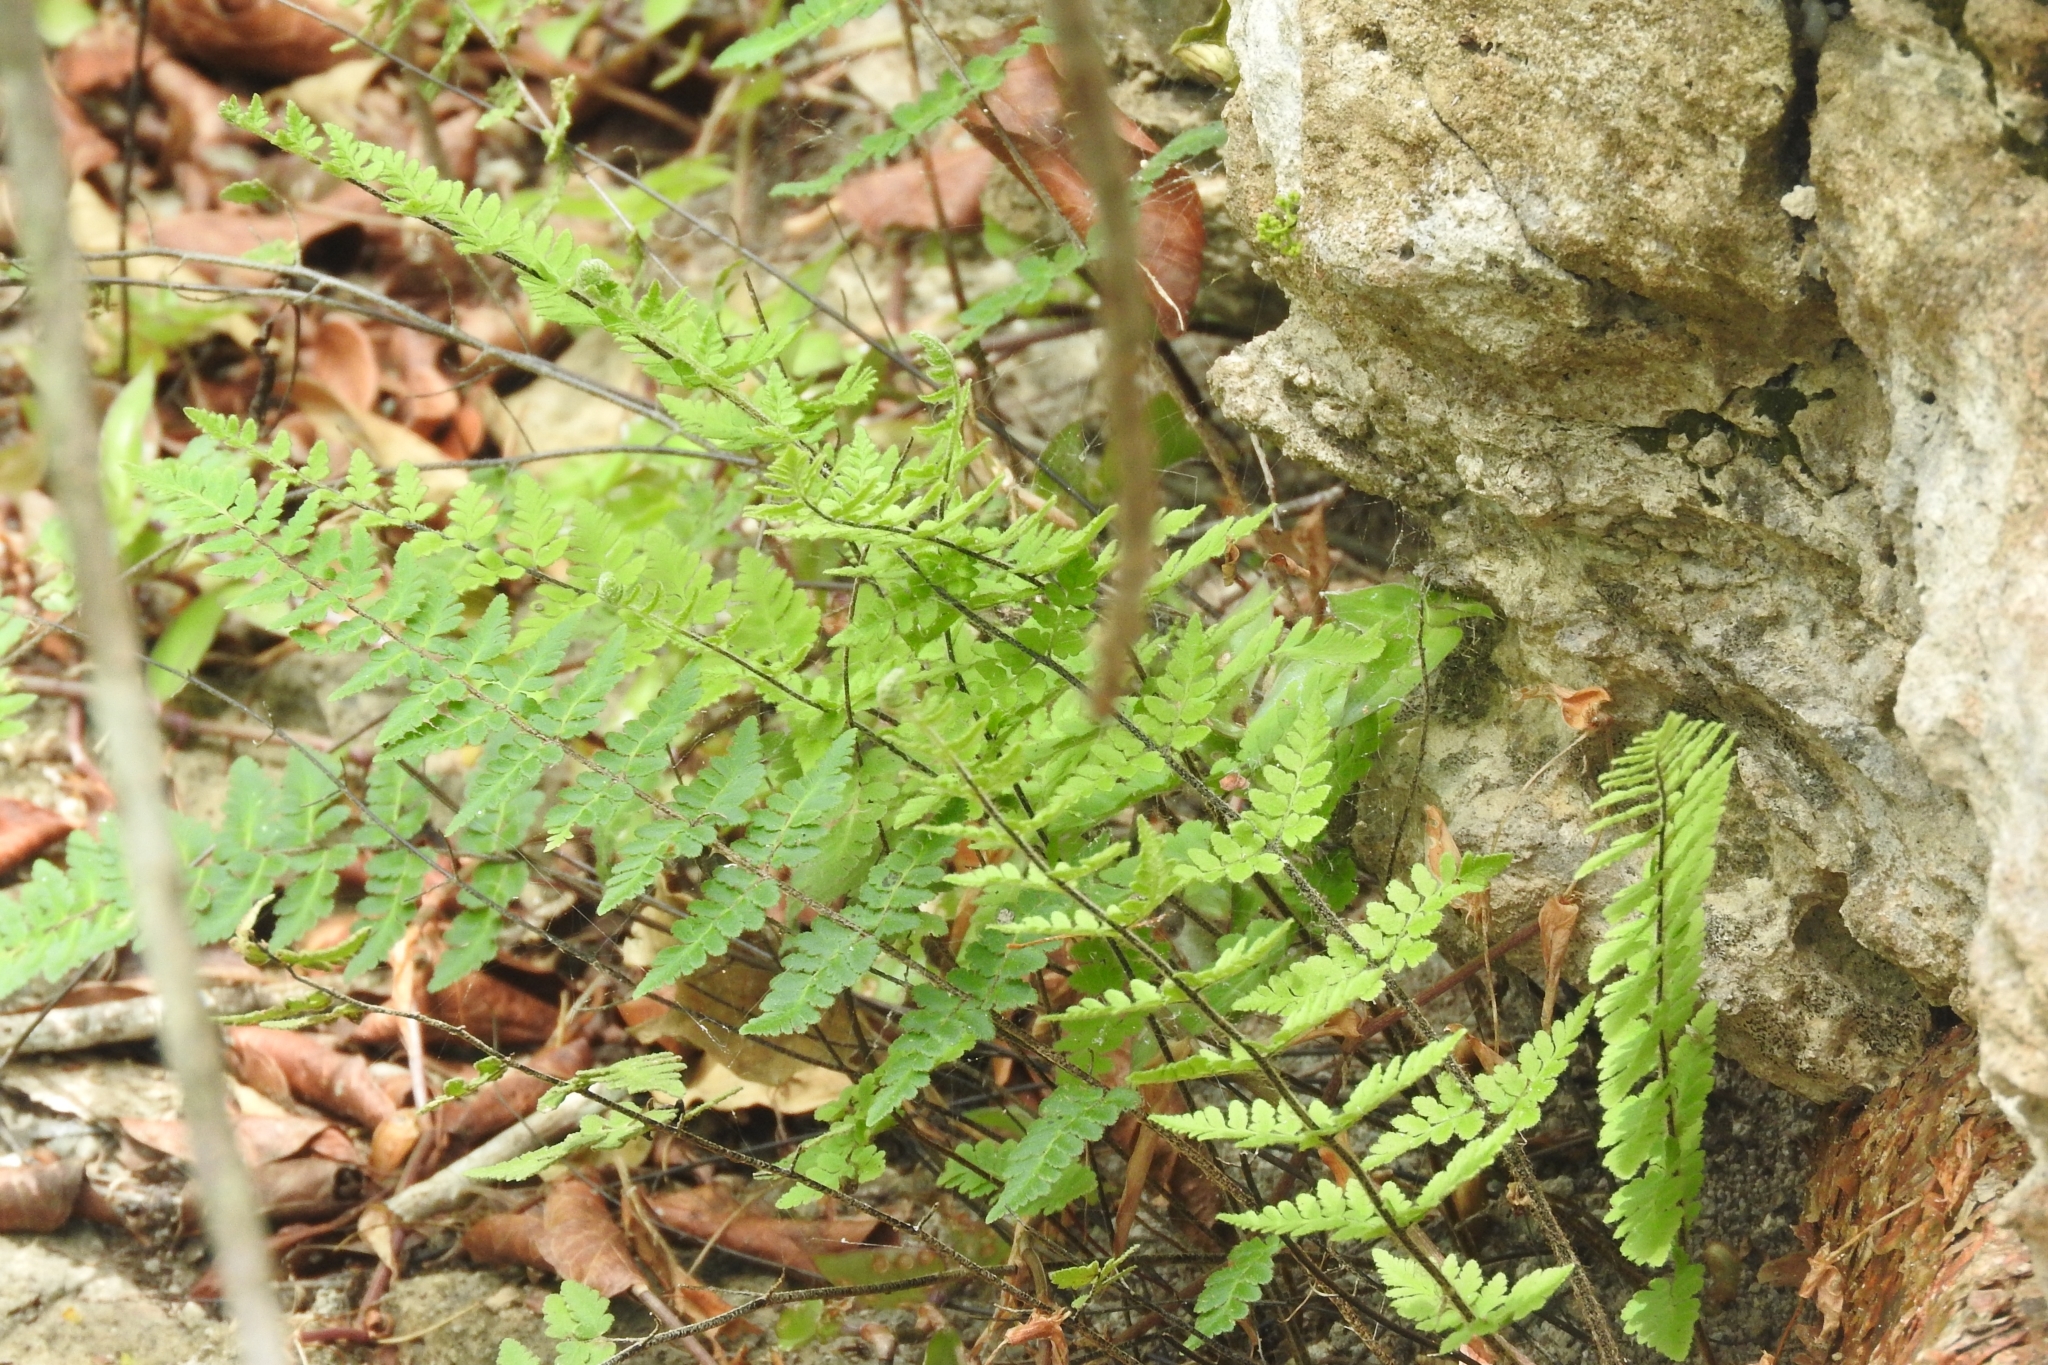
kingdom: Plantae
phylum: Tracheophyta
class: Polypodiopsida
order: Polypodiales
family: Pteridaceae
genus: Myriopteris
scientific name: Myriopteris scabra
